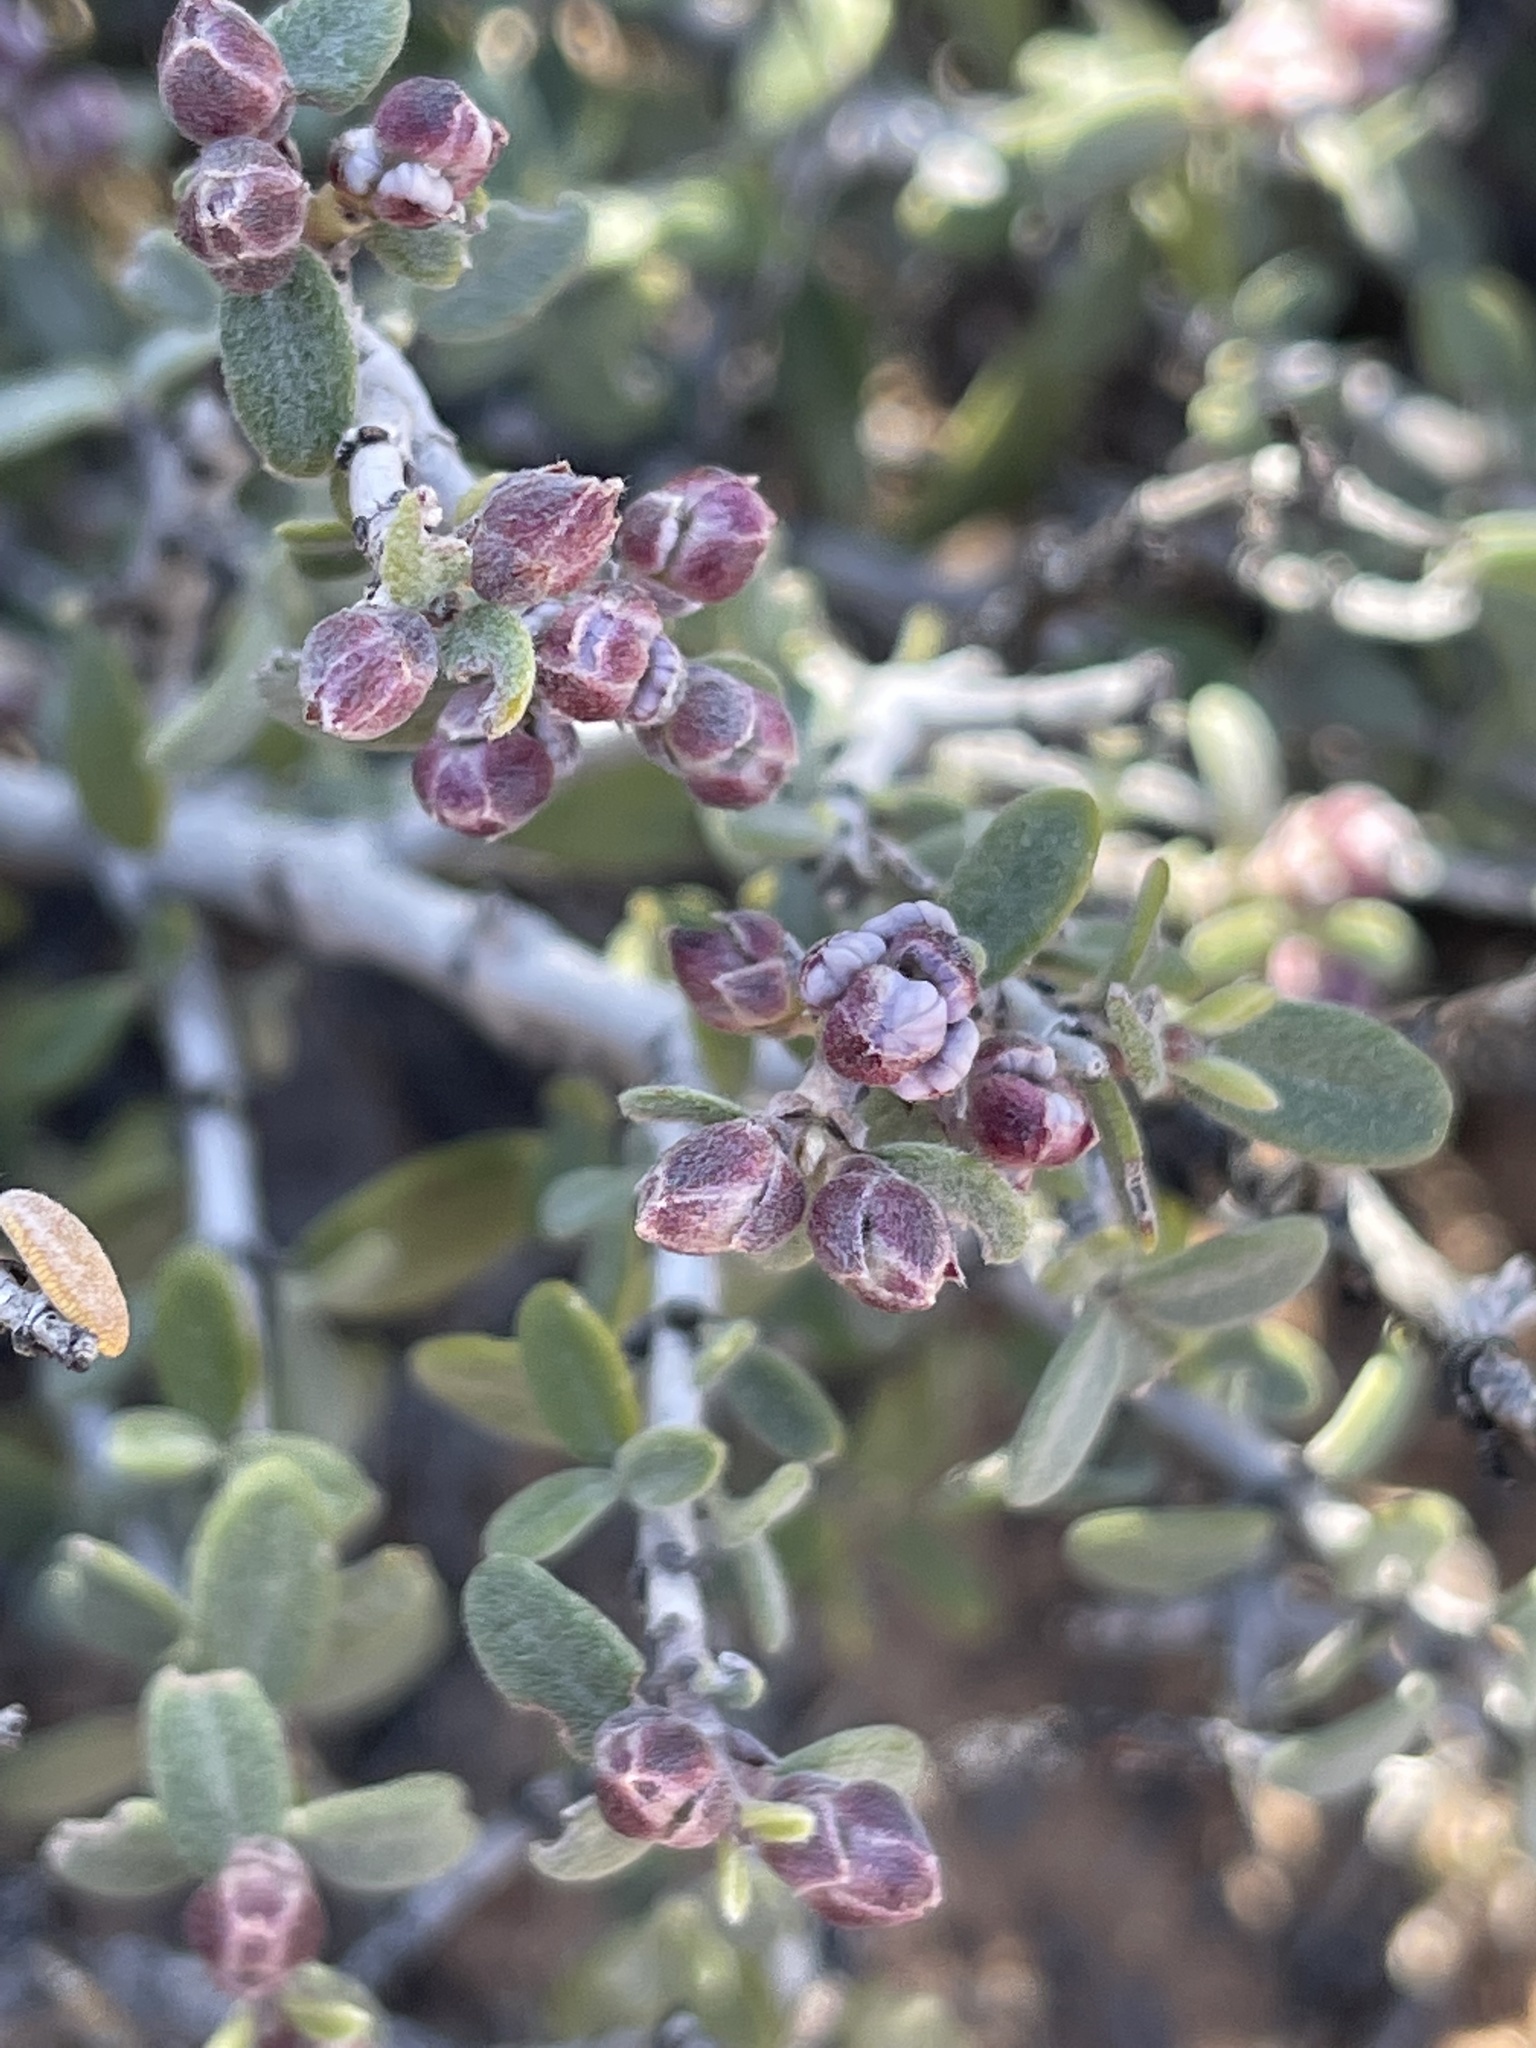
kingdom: Plantae
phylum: Tracheophyta
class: Magnoliopsida
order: Rosales
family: Rhamnaceae
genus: Ceanothus
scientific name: Ceanothus pauciflorus
